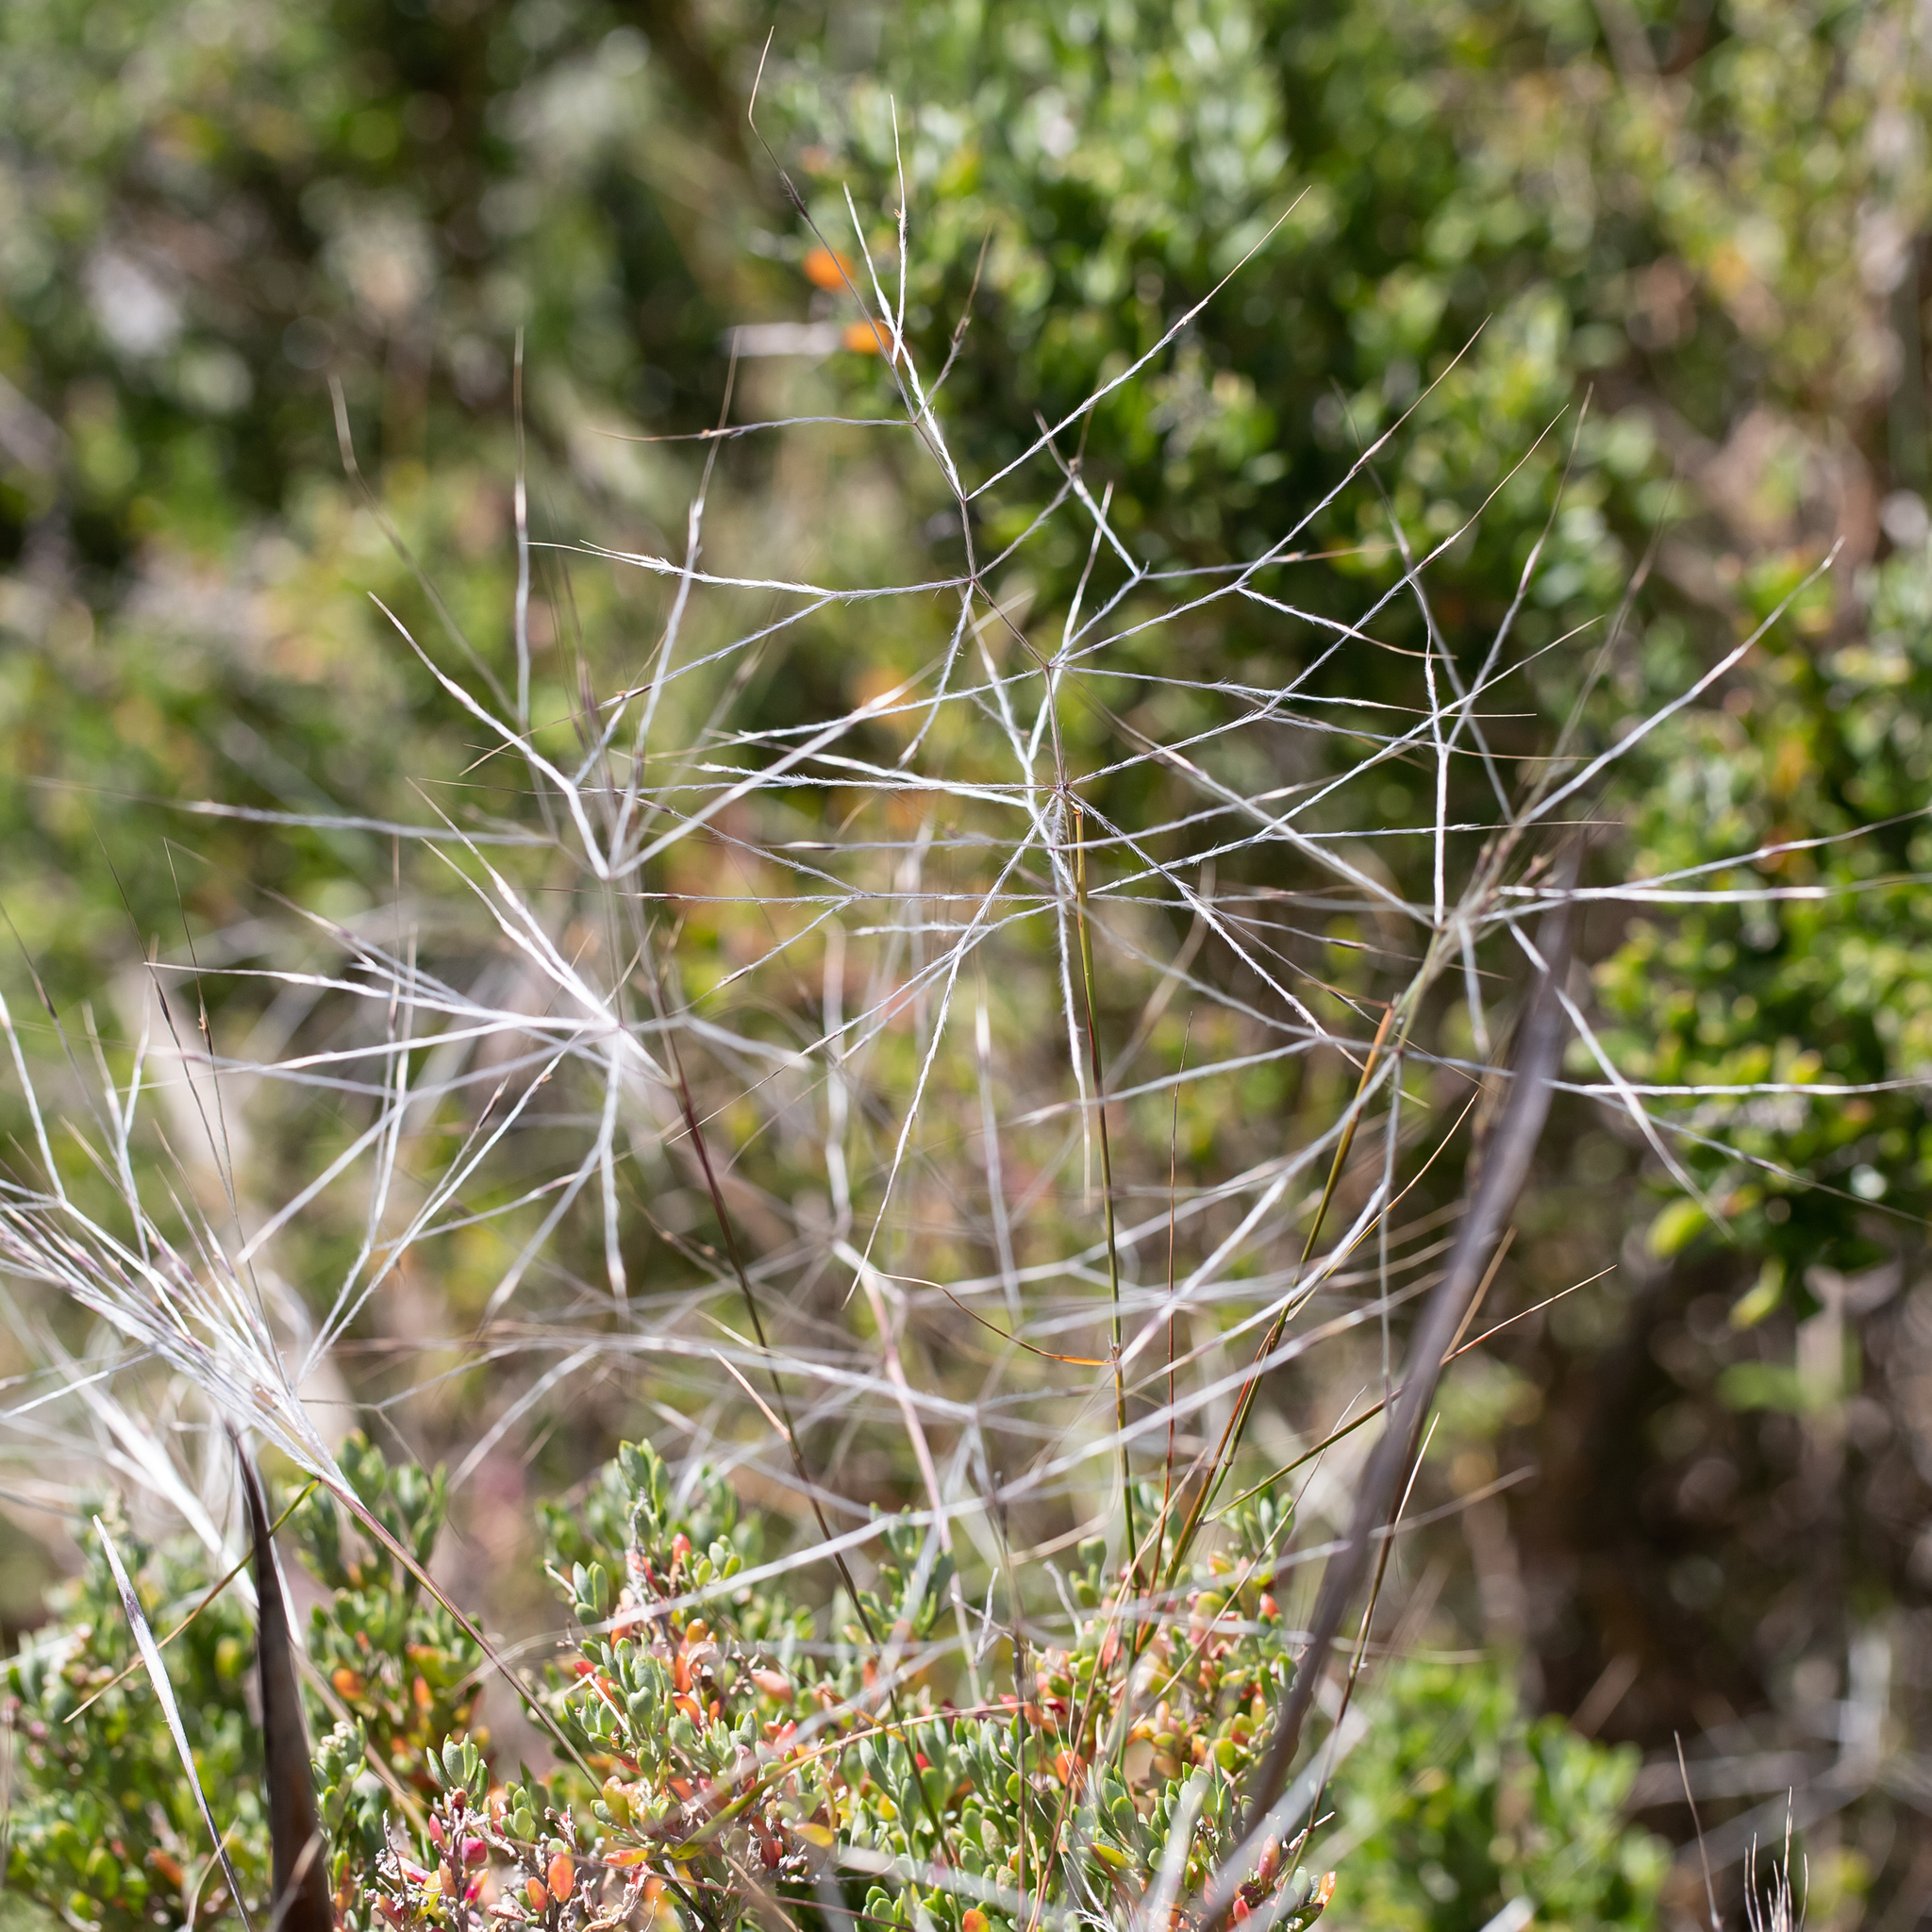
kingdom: Plantae
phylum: Tracheophyta
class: Liliopsida
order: Poales
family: Poaceae
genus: Austrostipa
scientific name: Austrostipa elegantissima
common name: Feather spear grass
